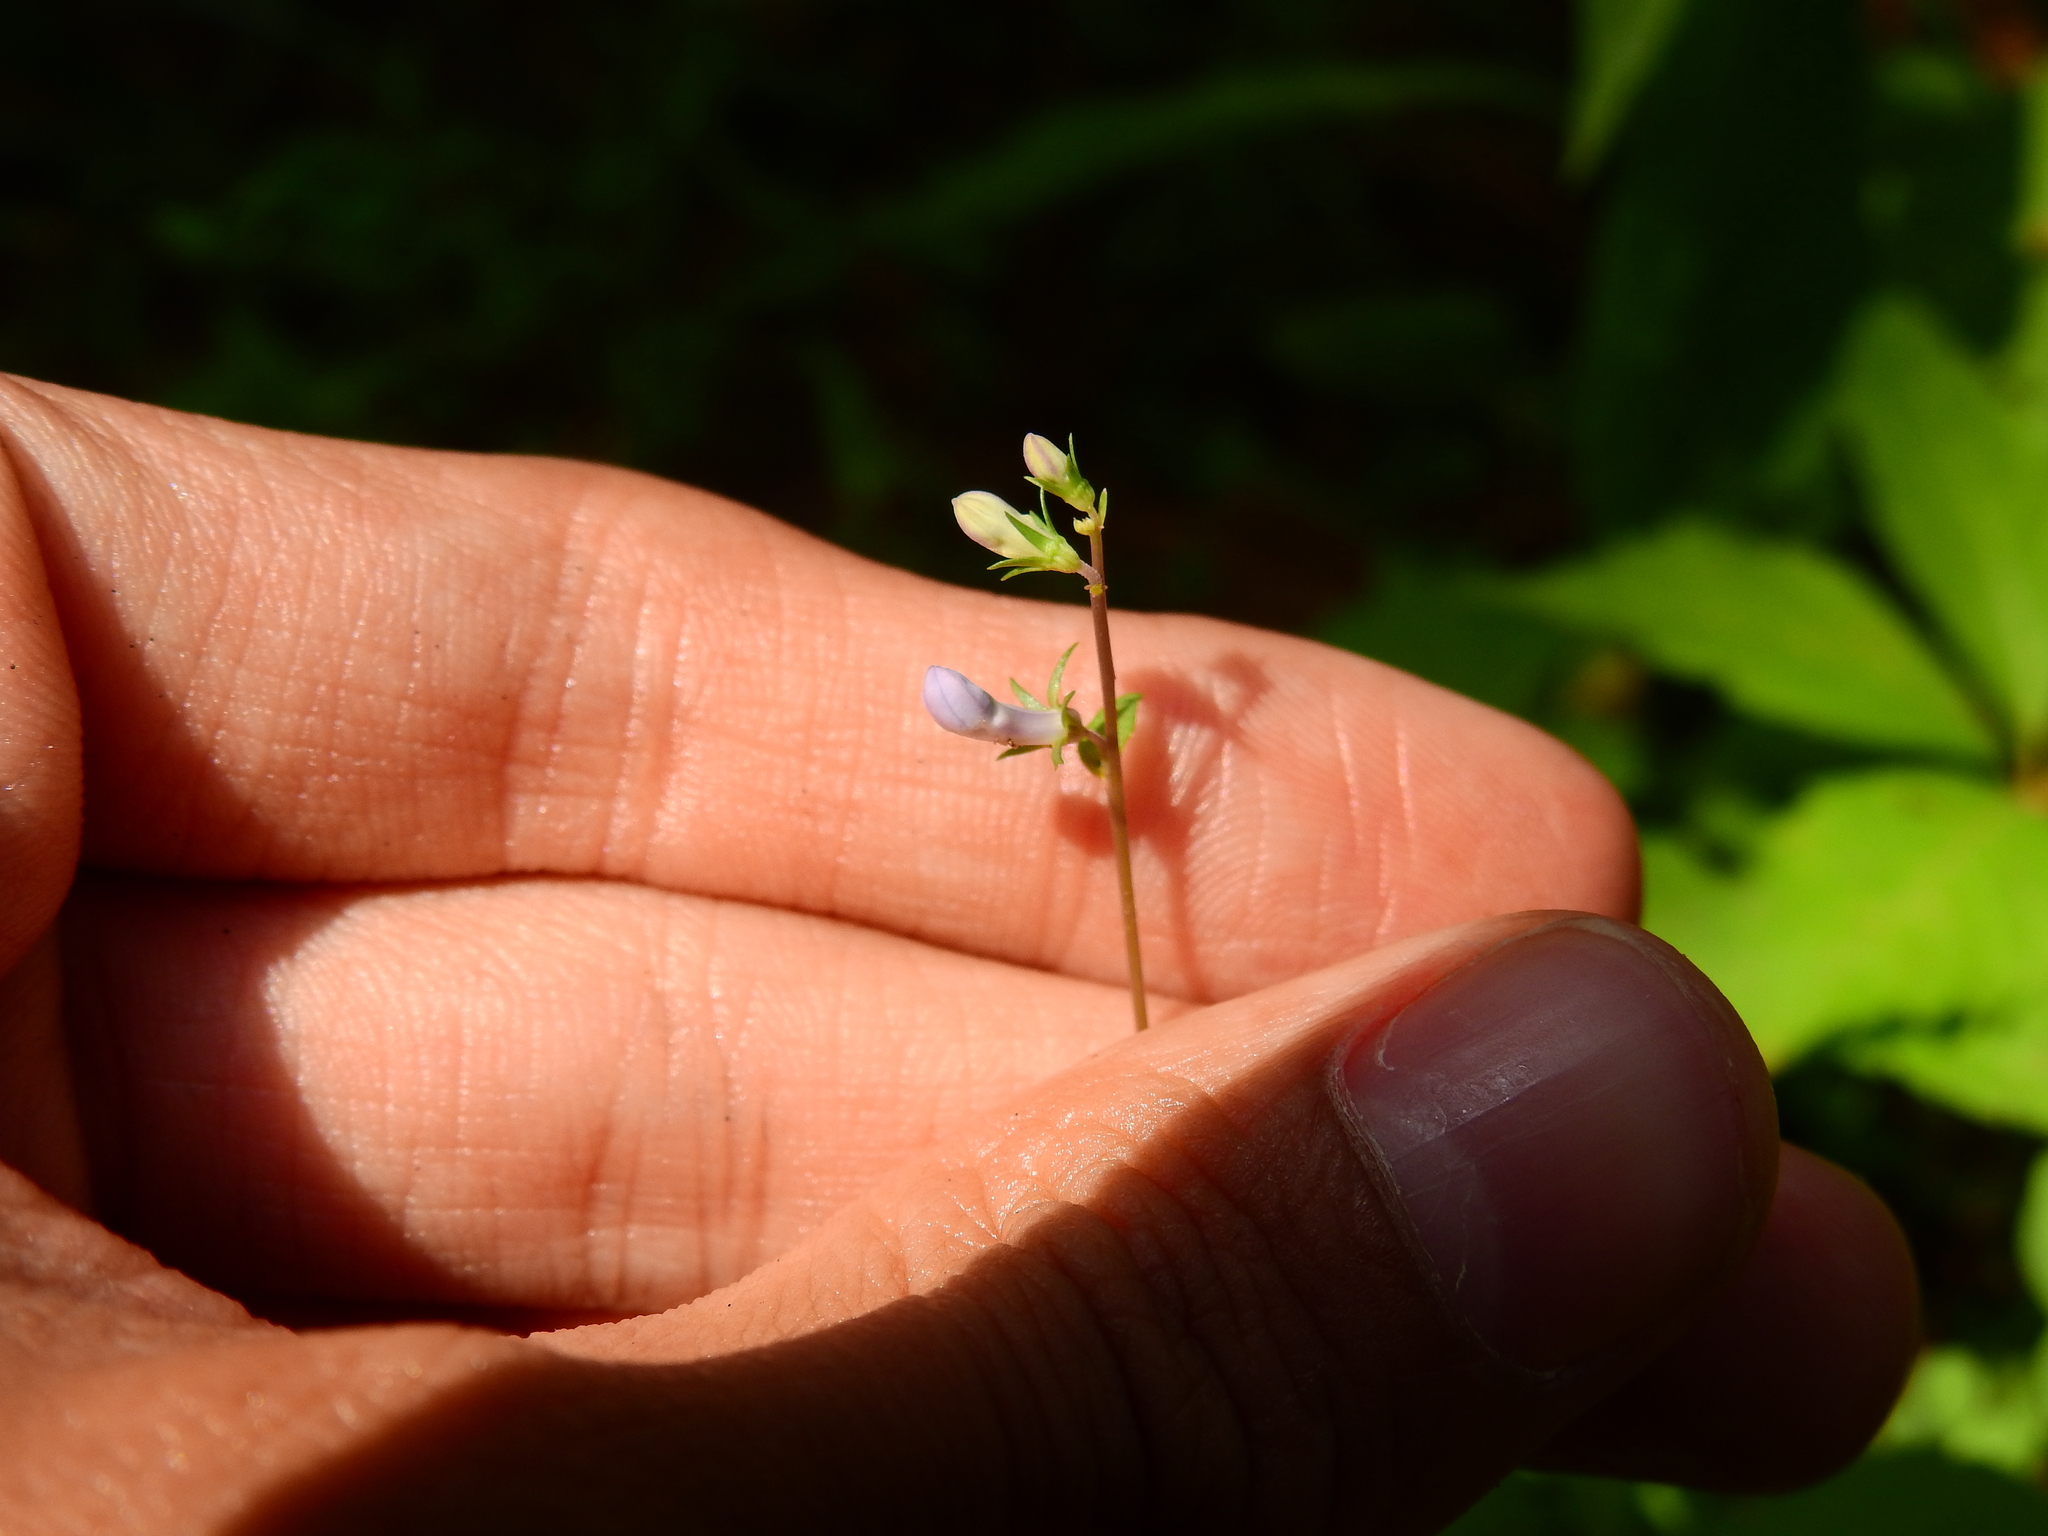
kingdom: Plantae
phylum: Tracheophyta
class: Magnoliopsida
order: Asterales
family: Campanulaceae
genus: Lobelia
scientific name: Lobelia spicata
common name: Pale-spike lobelia
